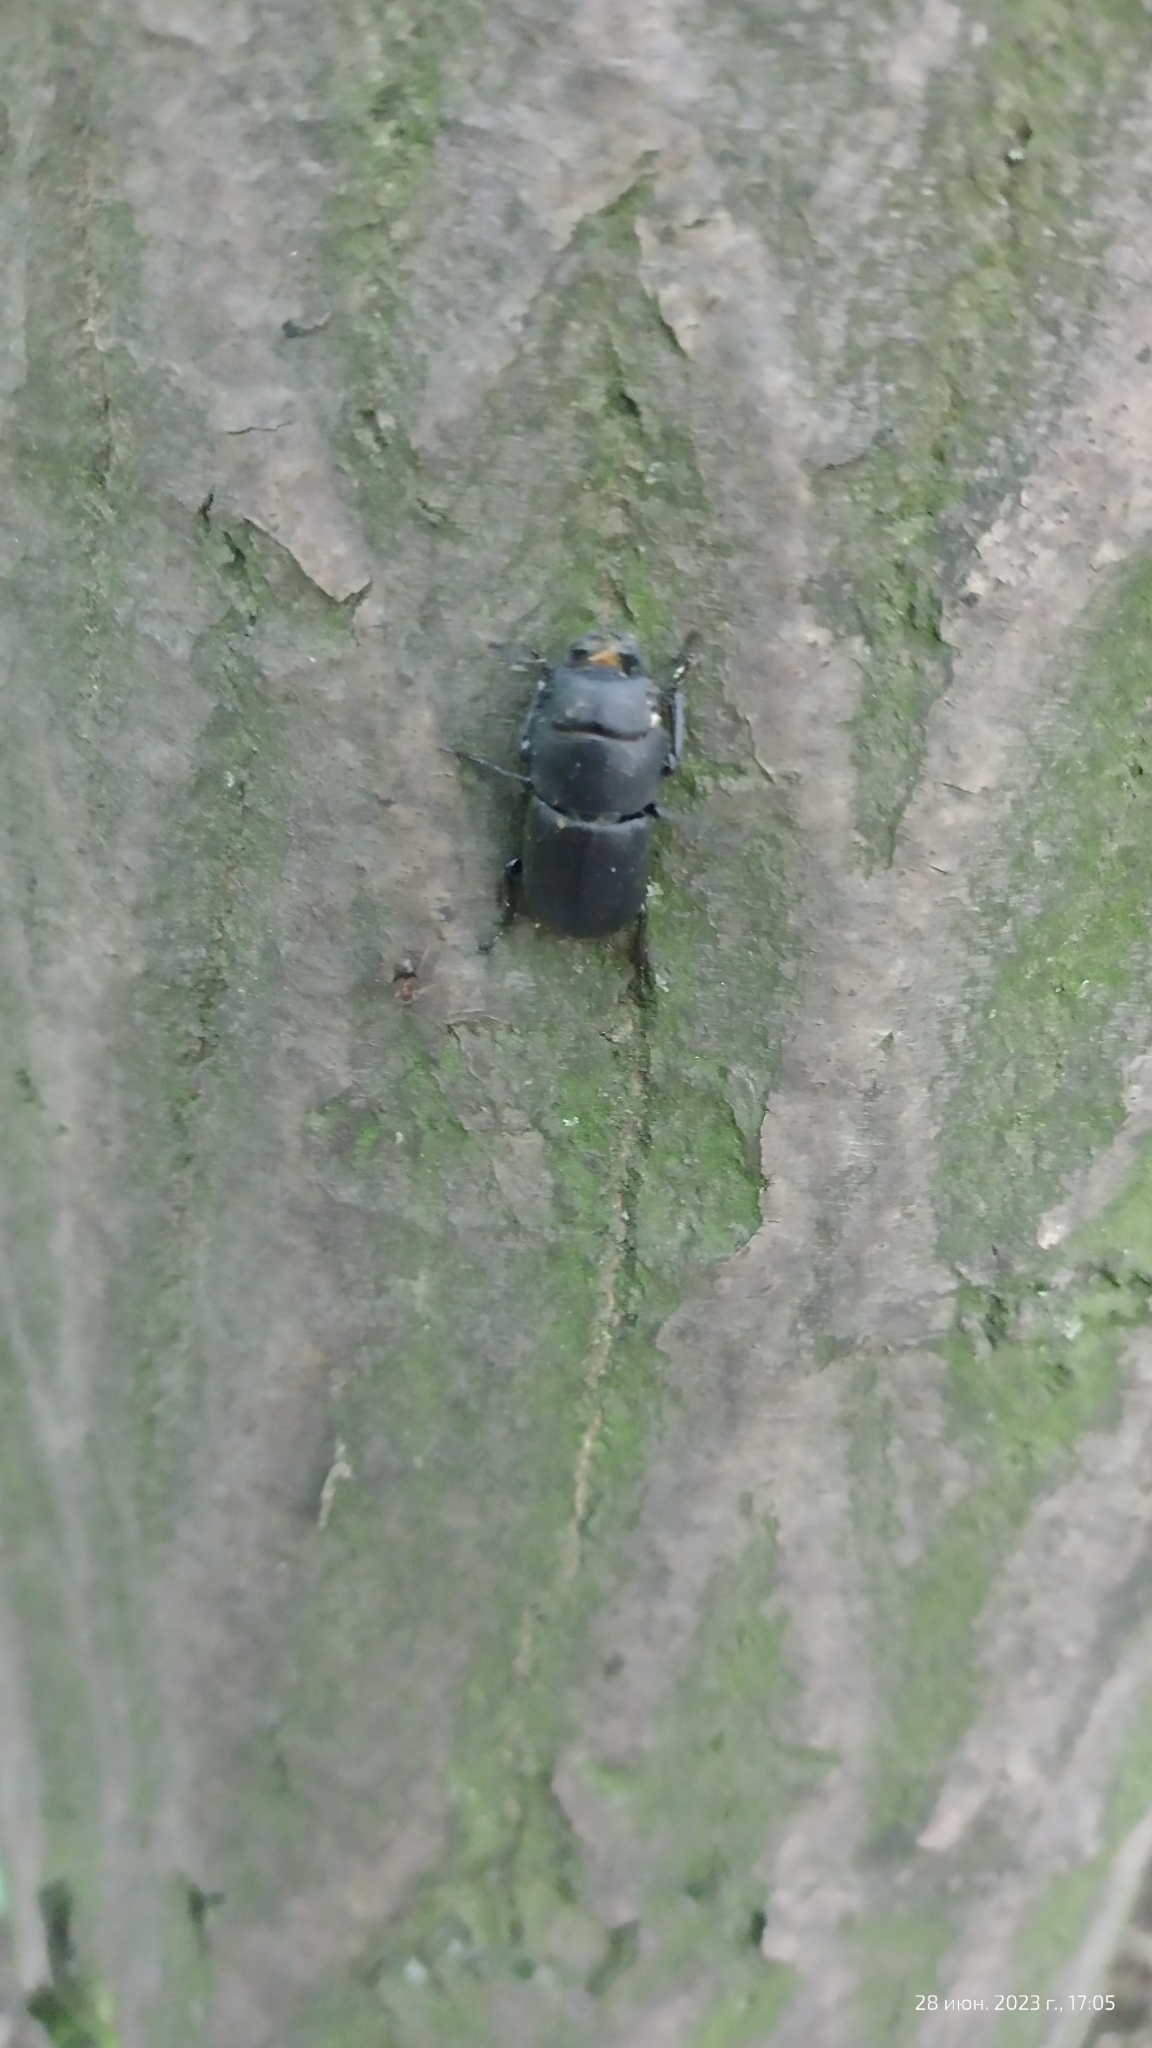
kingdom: Animalia
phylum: Arthropoda
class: Insecta
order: Coleoptera
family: Lucanidae
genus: Dorcus
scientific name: Dorcus parallelipipedus
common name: Lesser stag beetle
